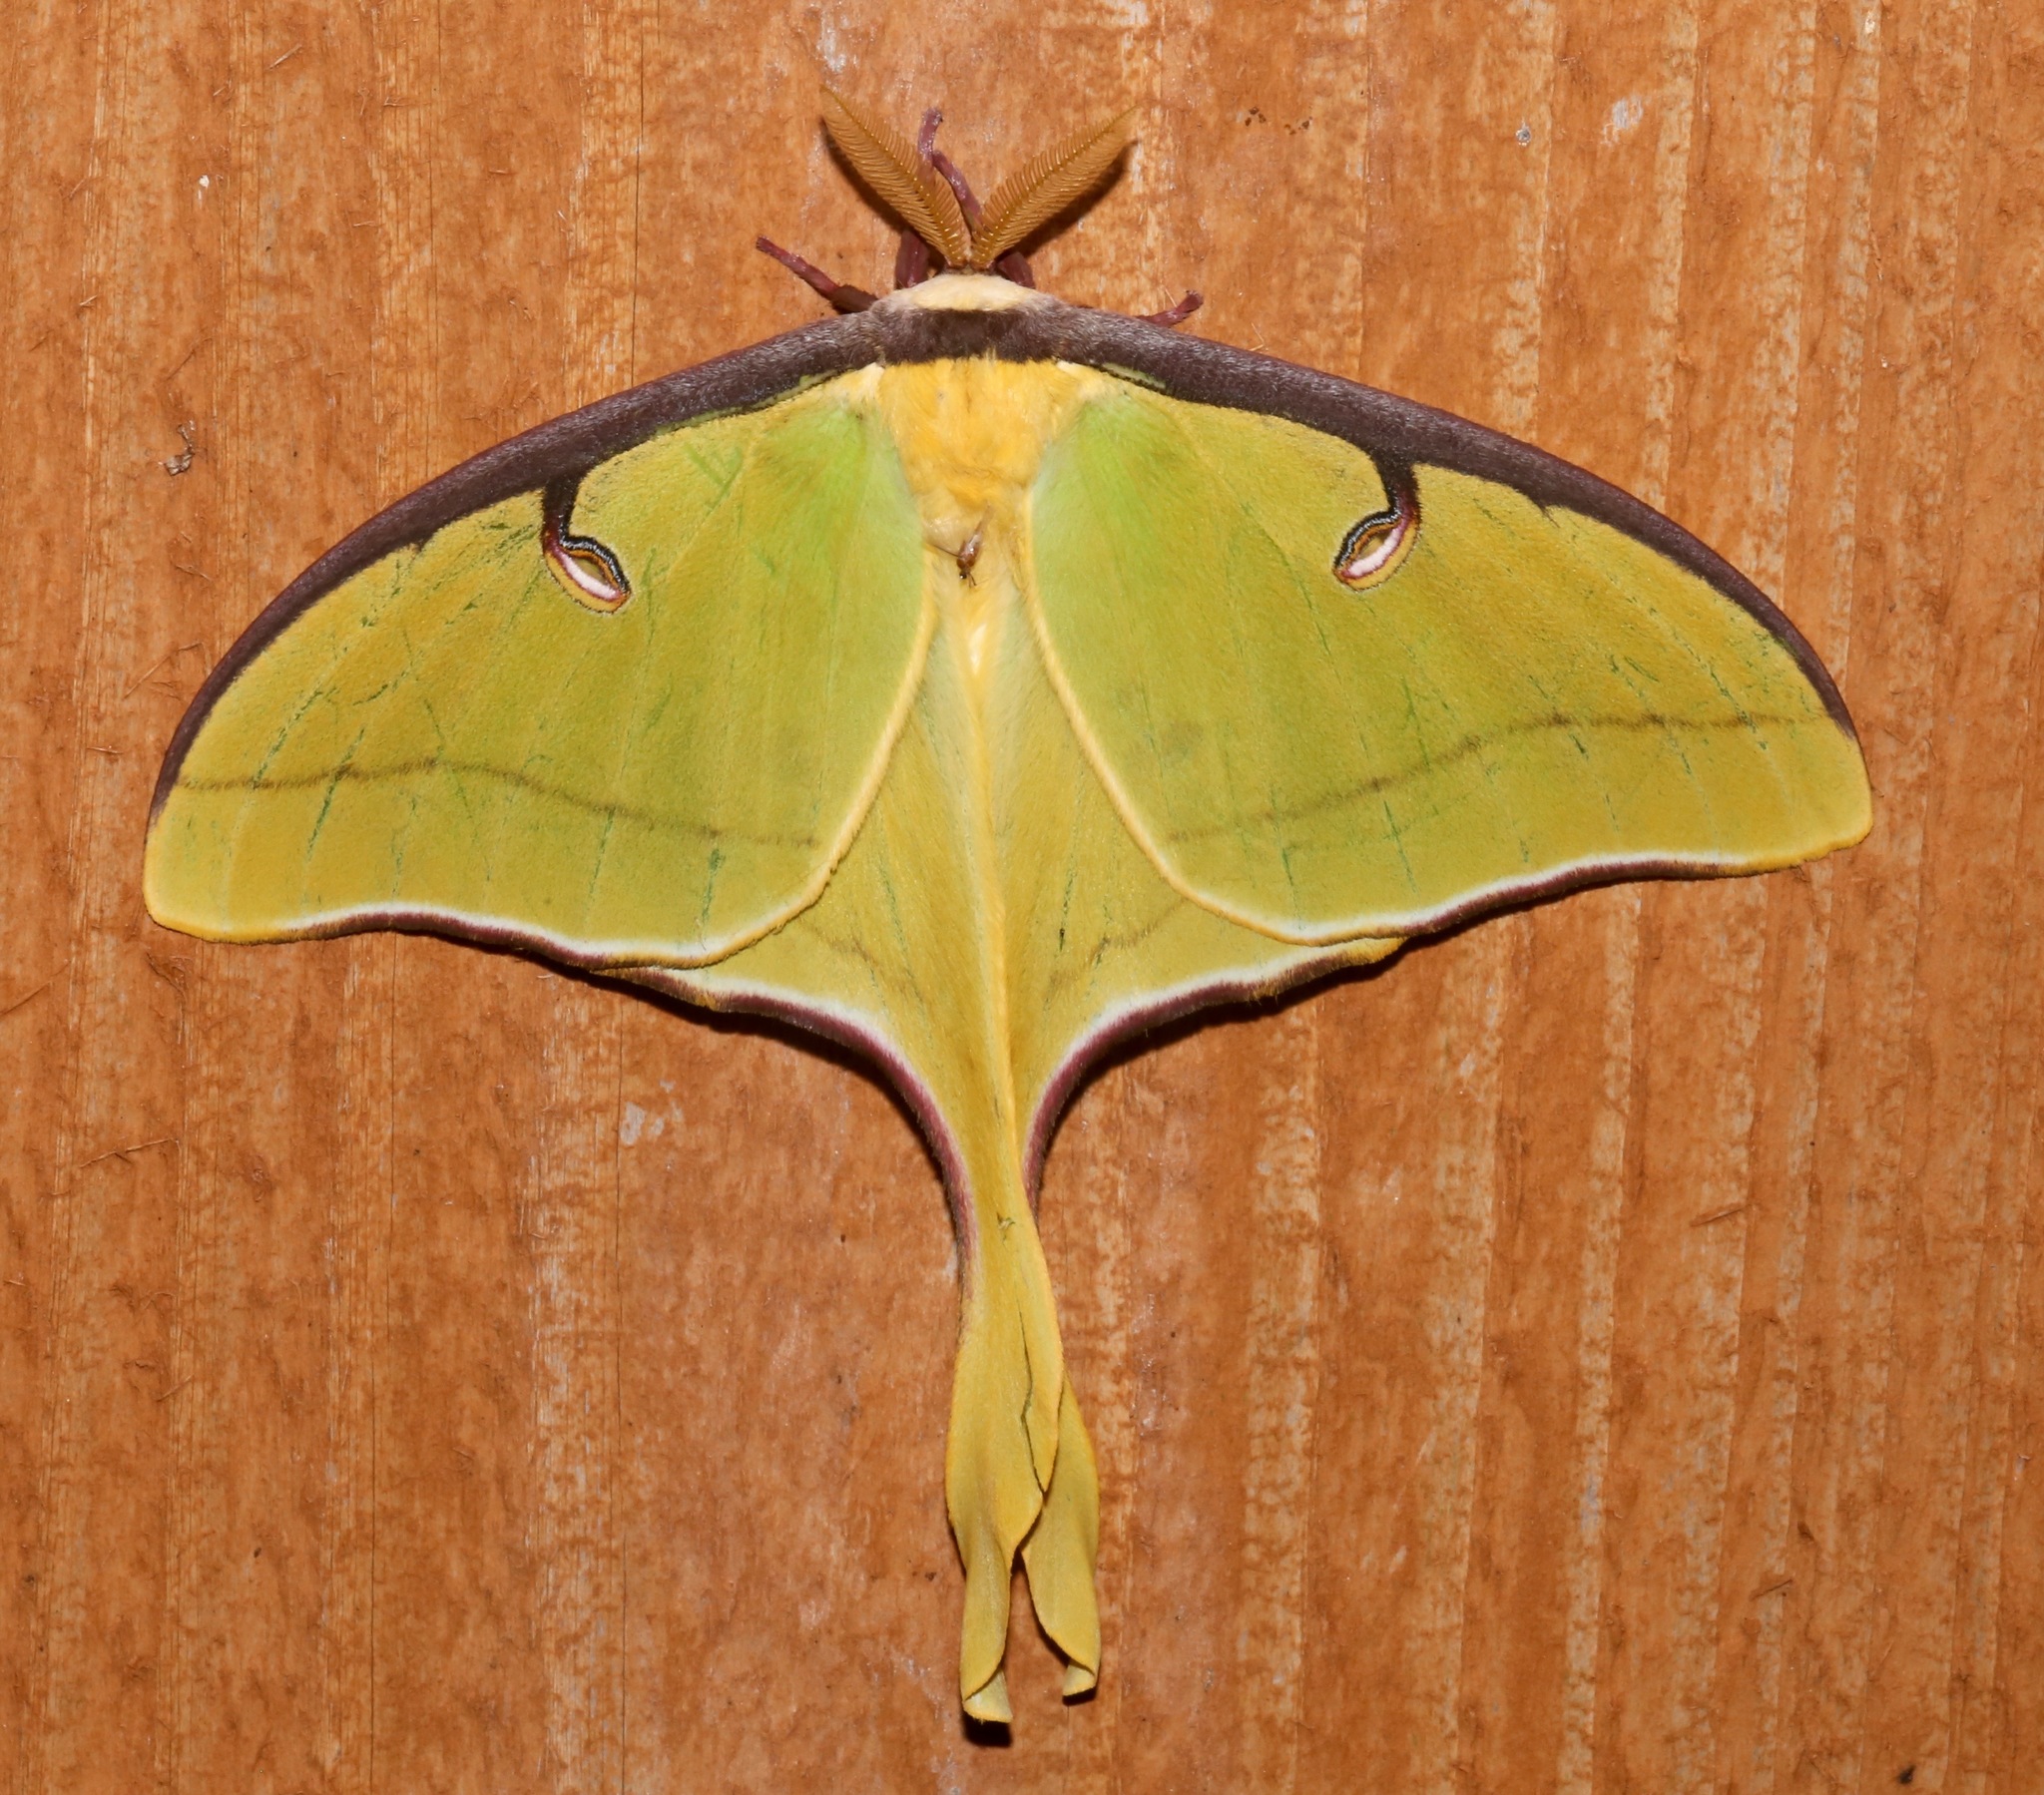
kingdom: Animalia
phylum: Arthropoda
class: Insecta
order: Lepidoptera
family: Saturniidae
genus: Actias
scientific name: Actias luna
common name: Luna moth
